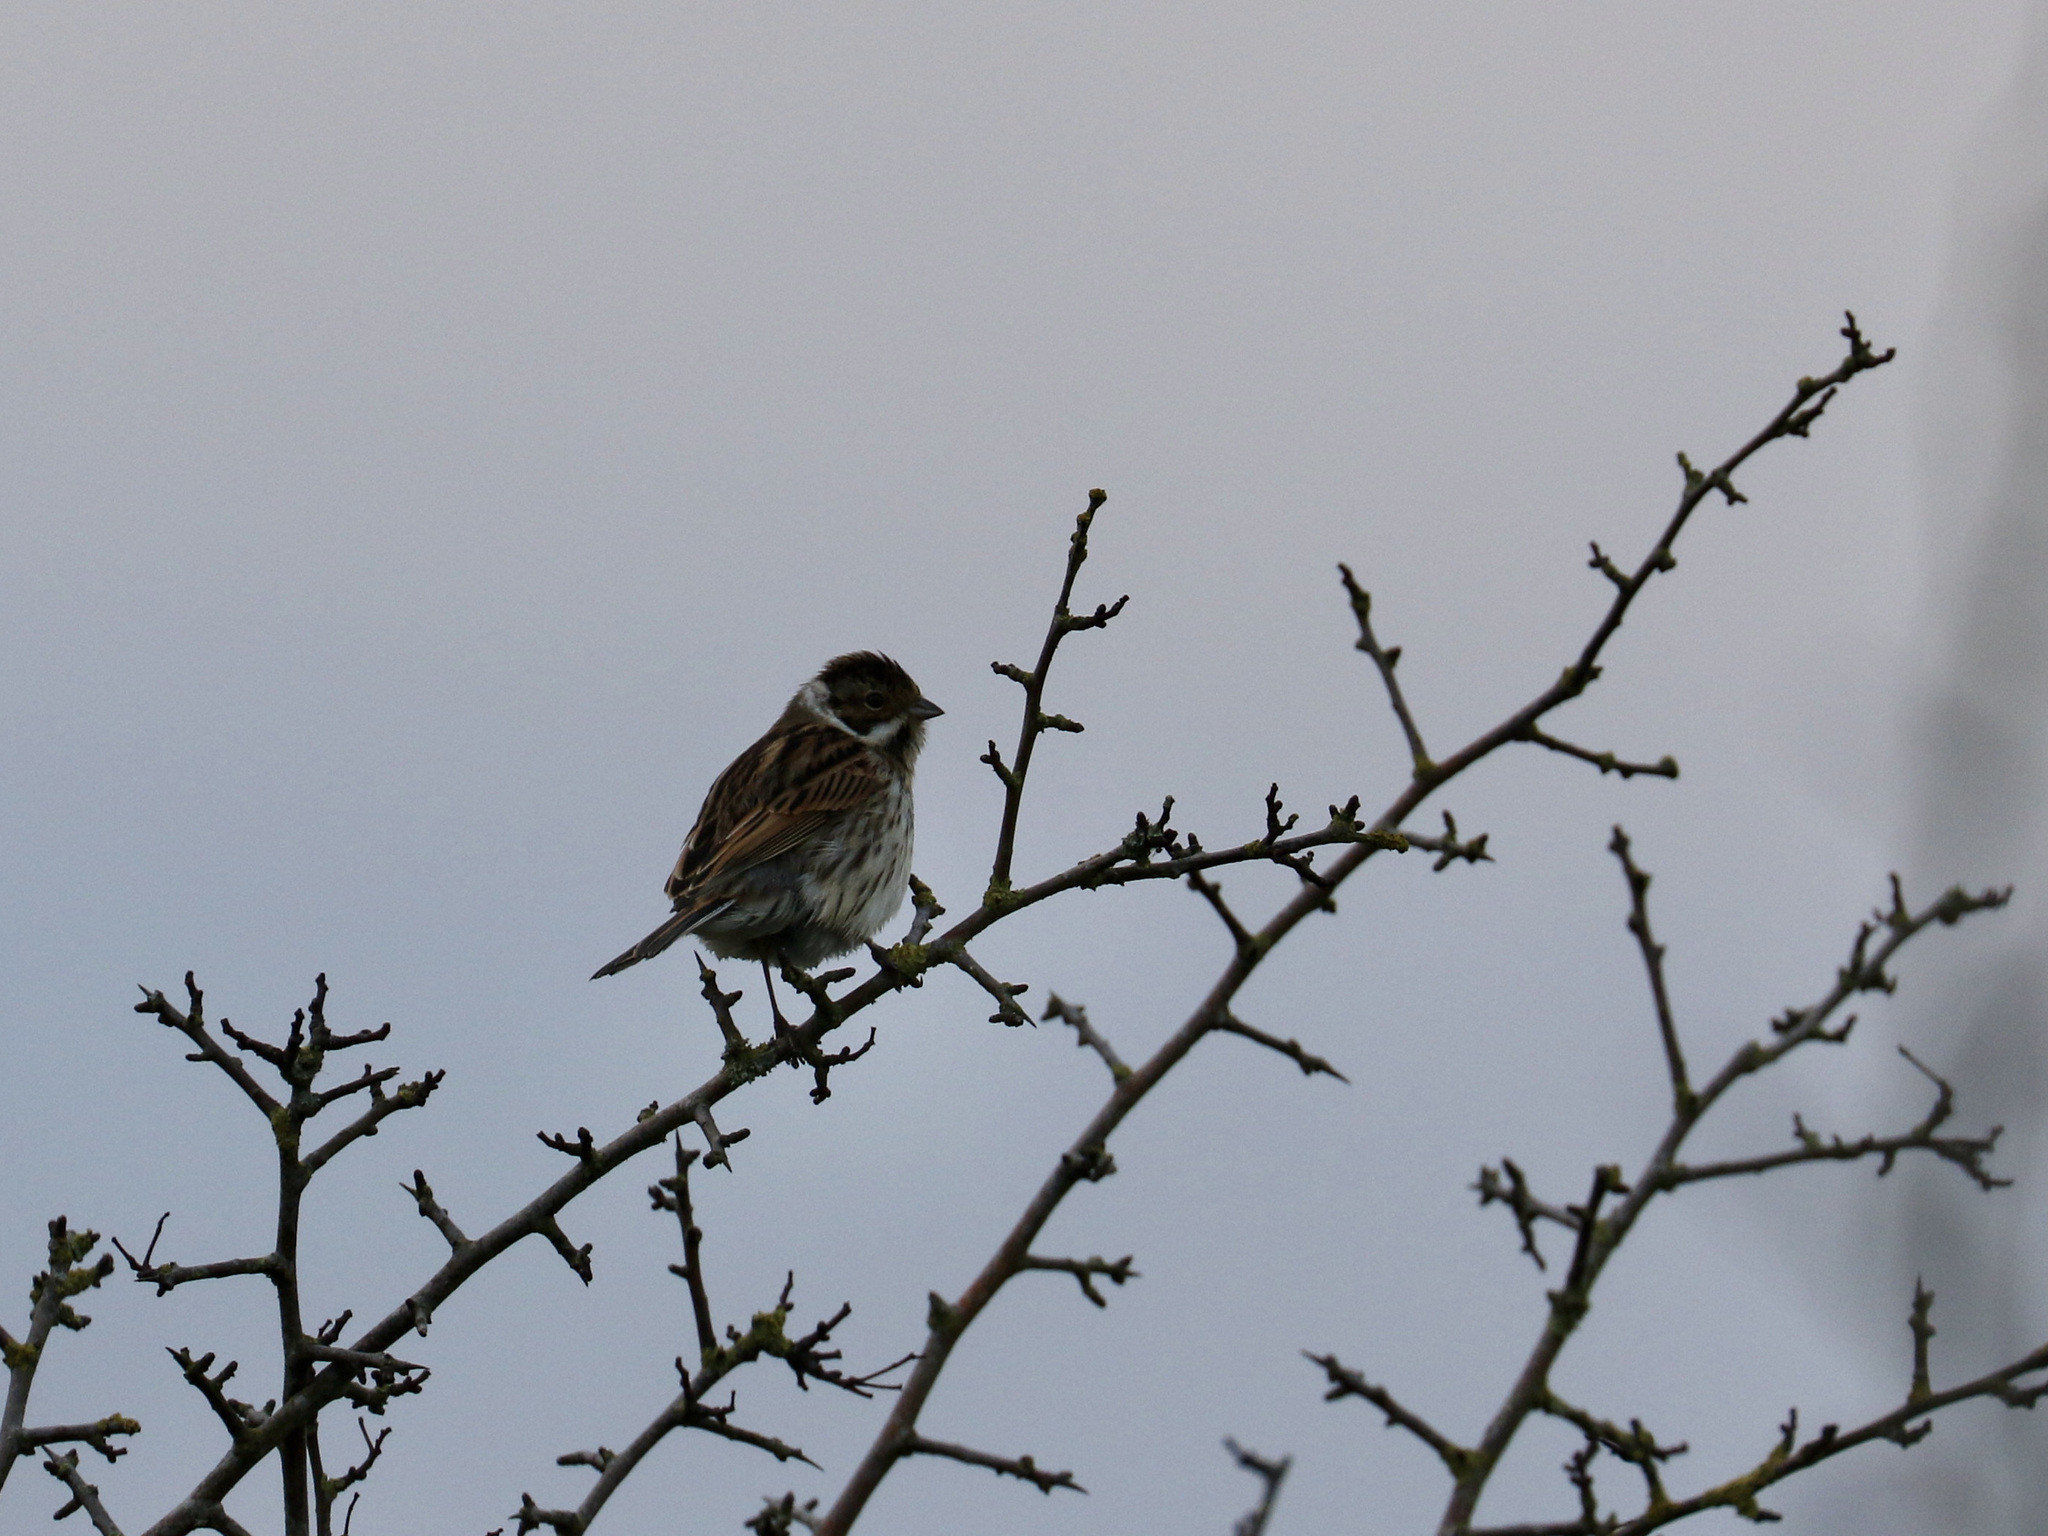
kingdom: Animalia
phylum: Chordata
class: Aves
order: Passeriformes
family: Emberizidae
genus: Emberiza
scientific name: Emberiza schoeniclus
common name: Reed bunting
